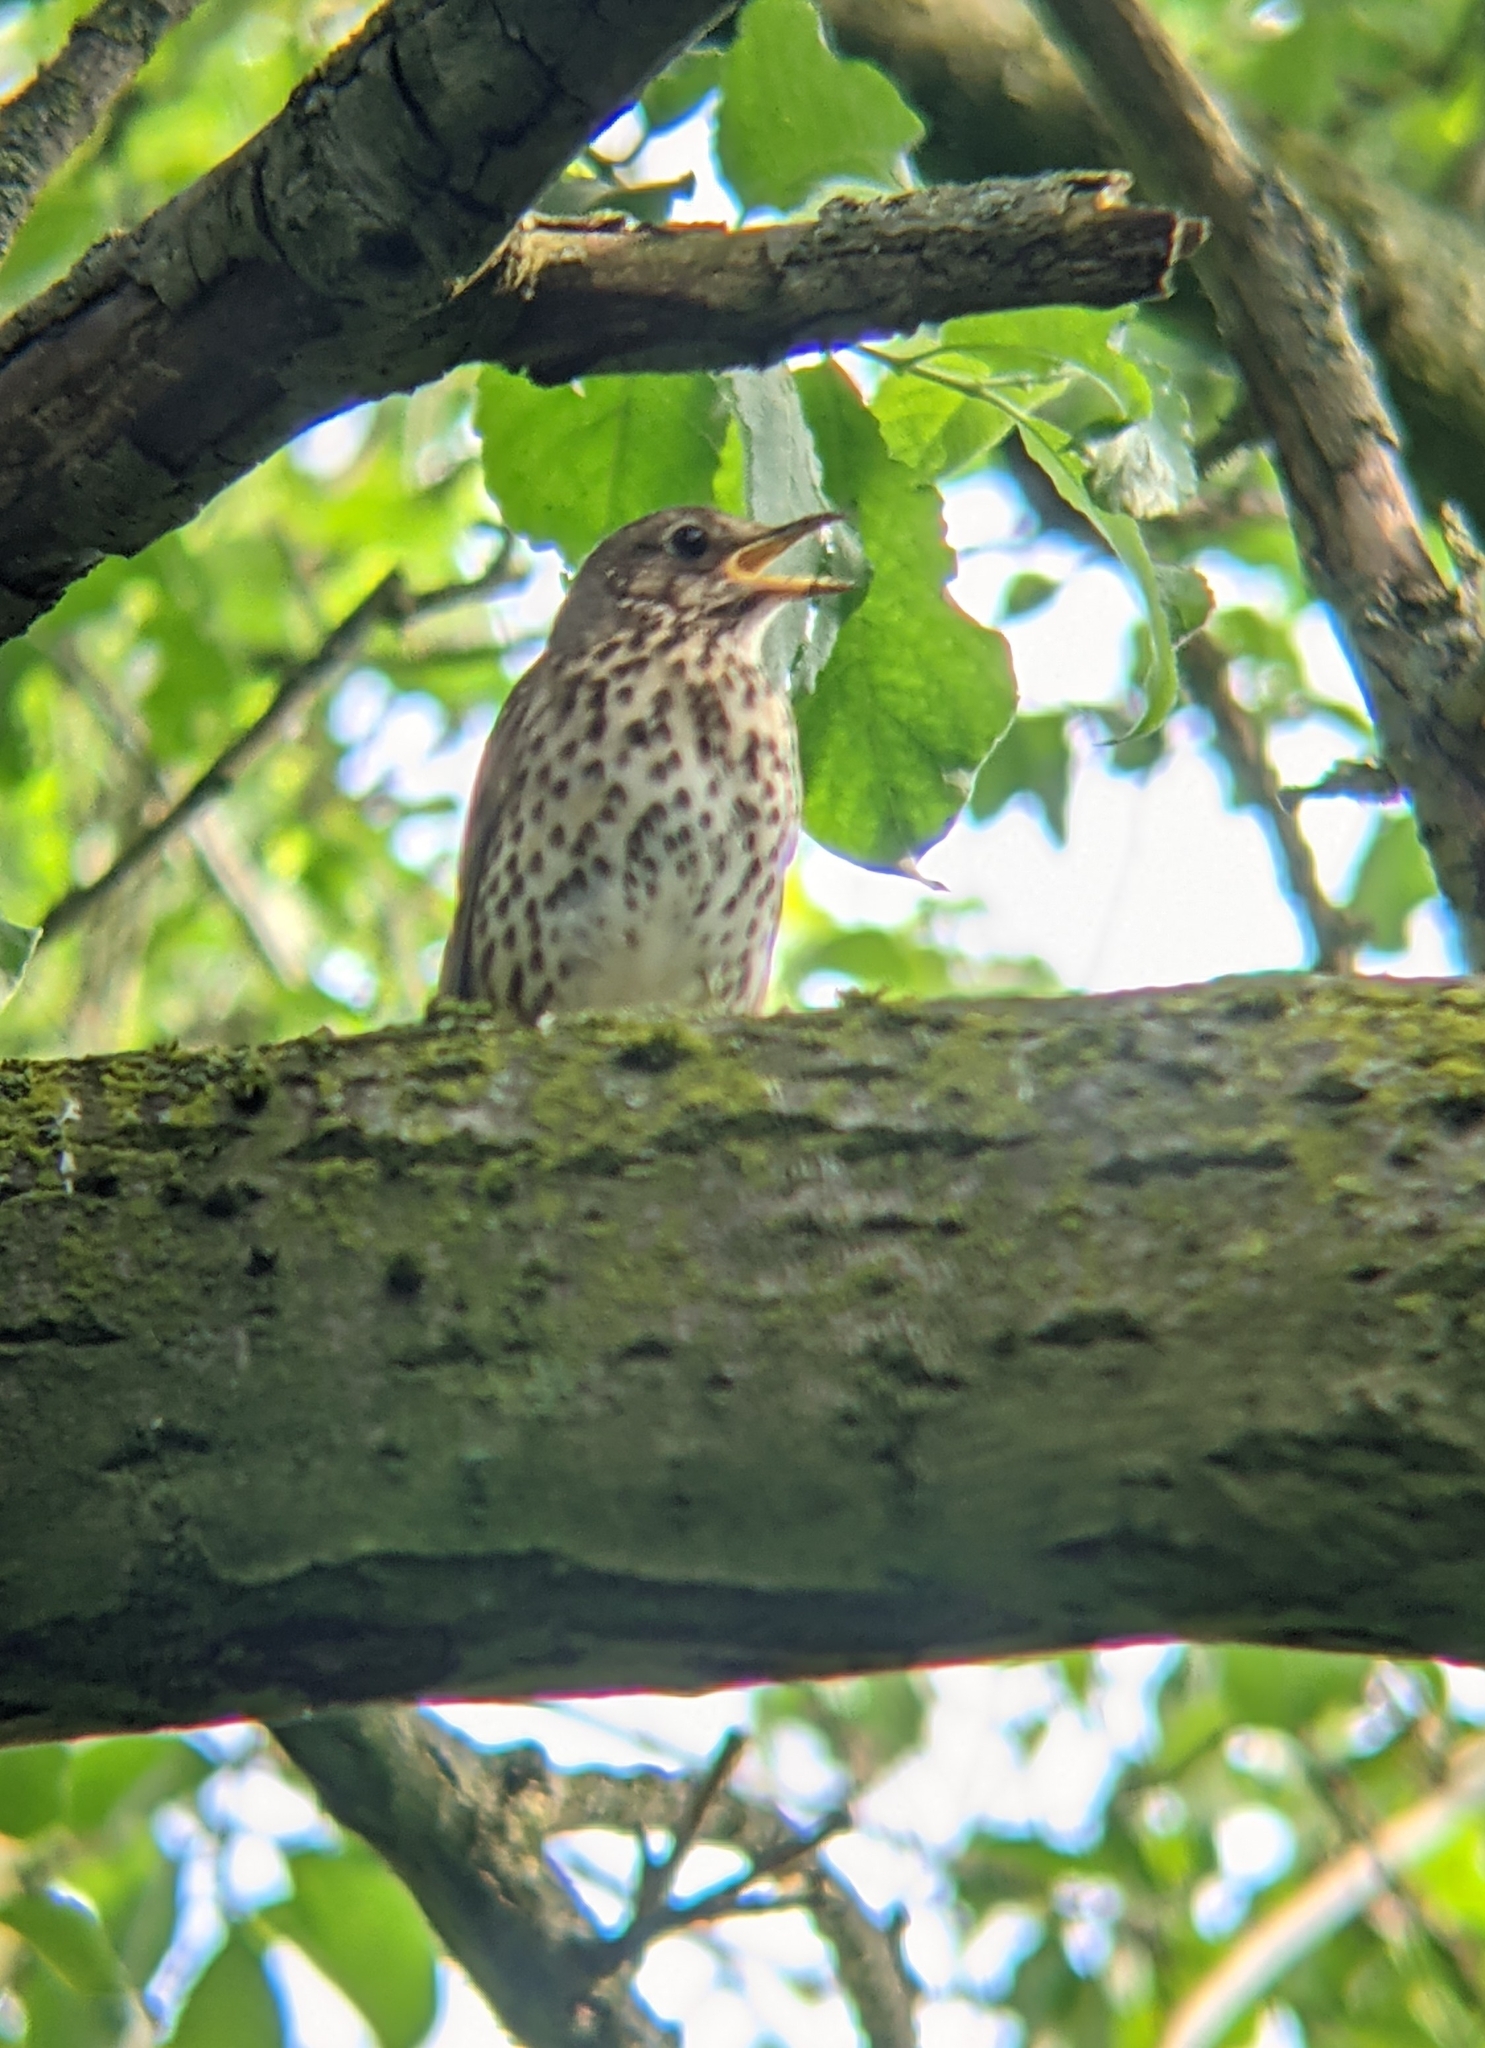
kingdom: Animalia
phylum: Chordata
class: Aves
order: Passeriformes
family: Turdidae
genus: Turdus
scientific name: Turdus philomelos
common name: Song thrush
